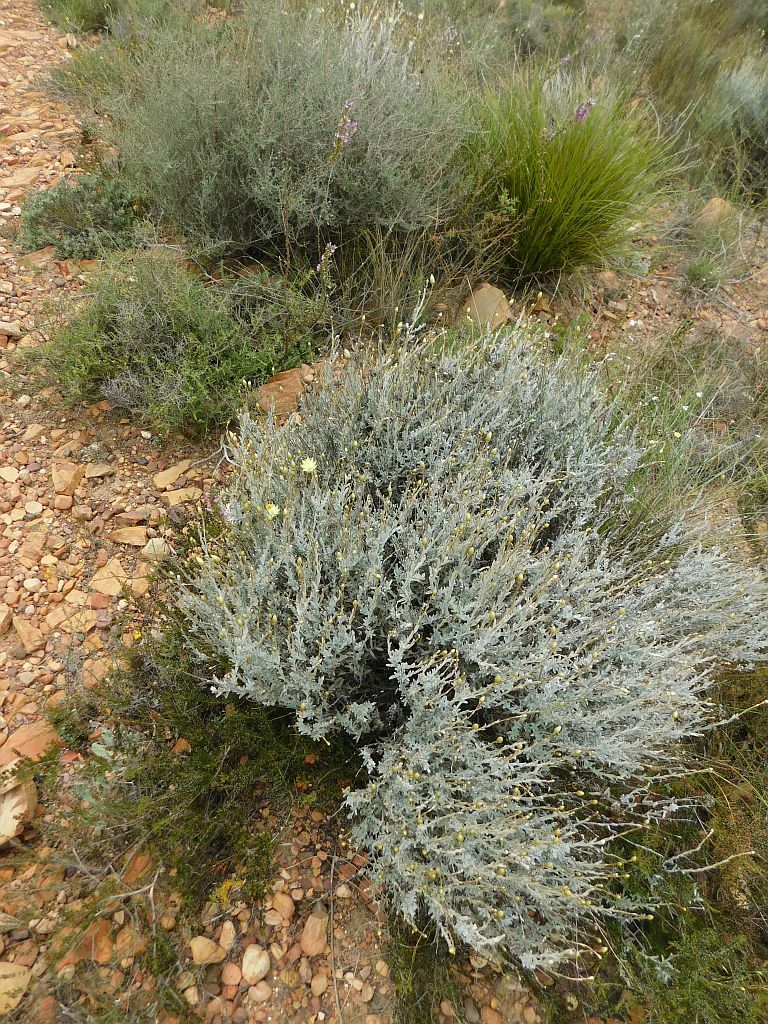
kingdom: Plantae
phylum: Tracheophyta
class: Magnoliopsida
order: Asterales
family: Asteraceae
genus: Syncarpha
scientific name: Syncarpha speciosissima
